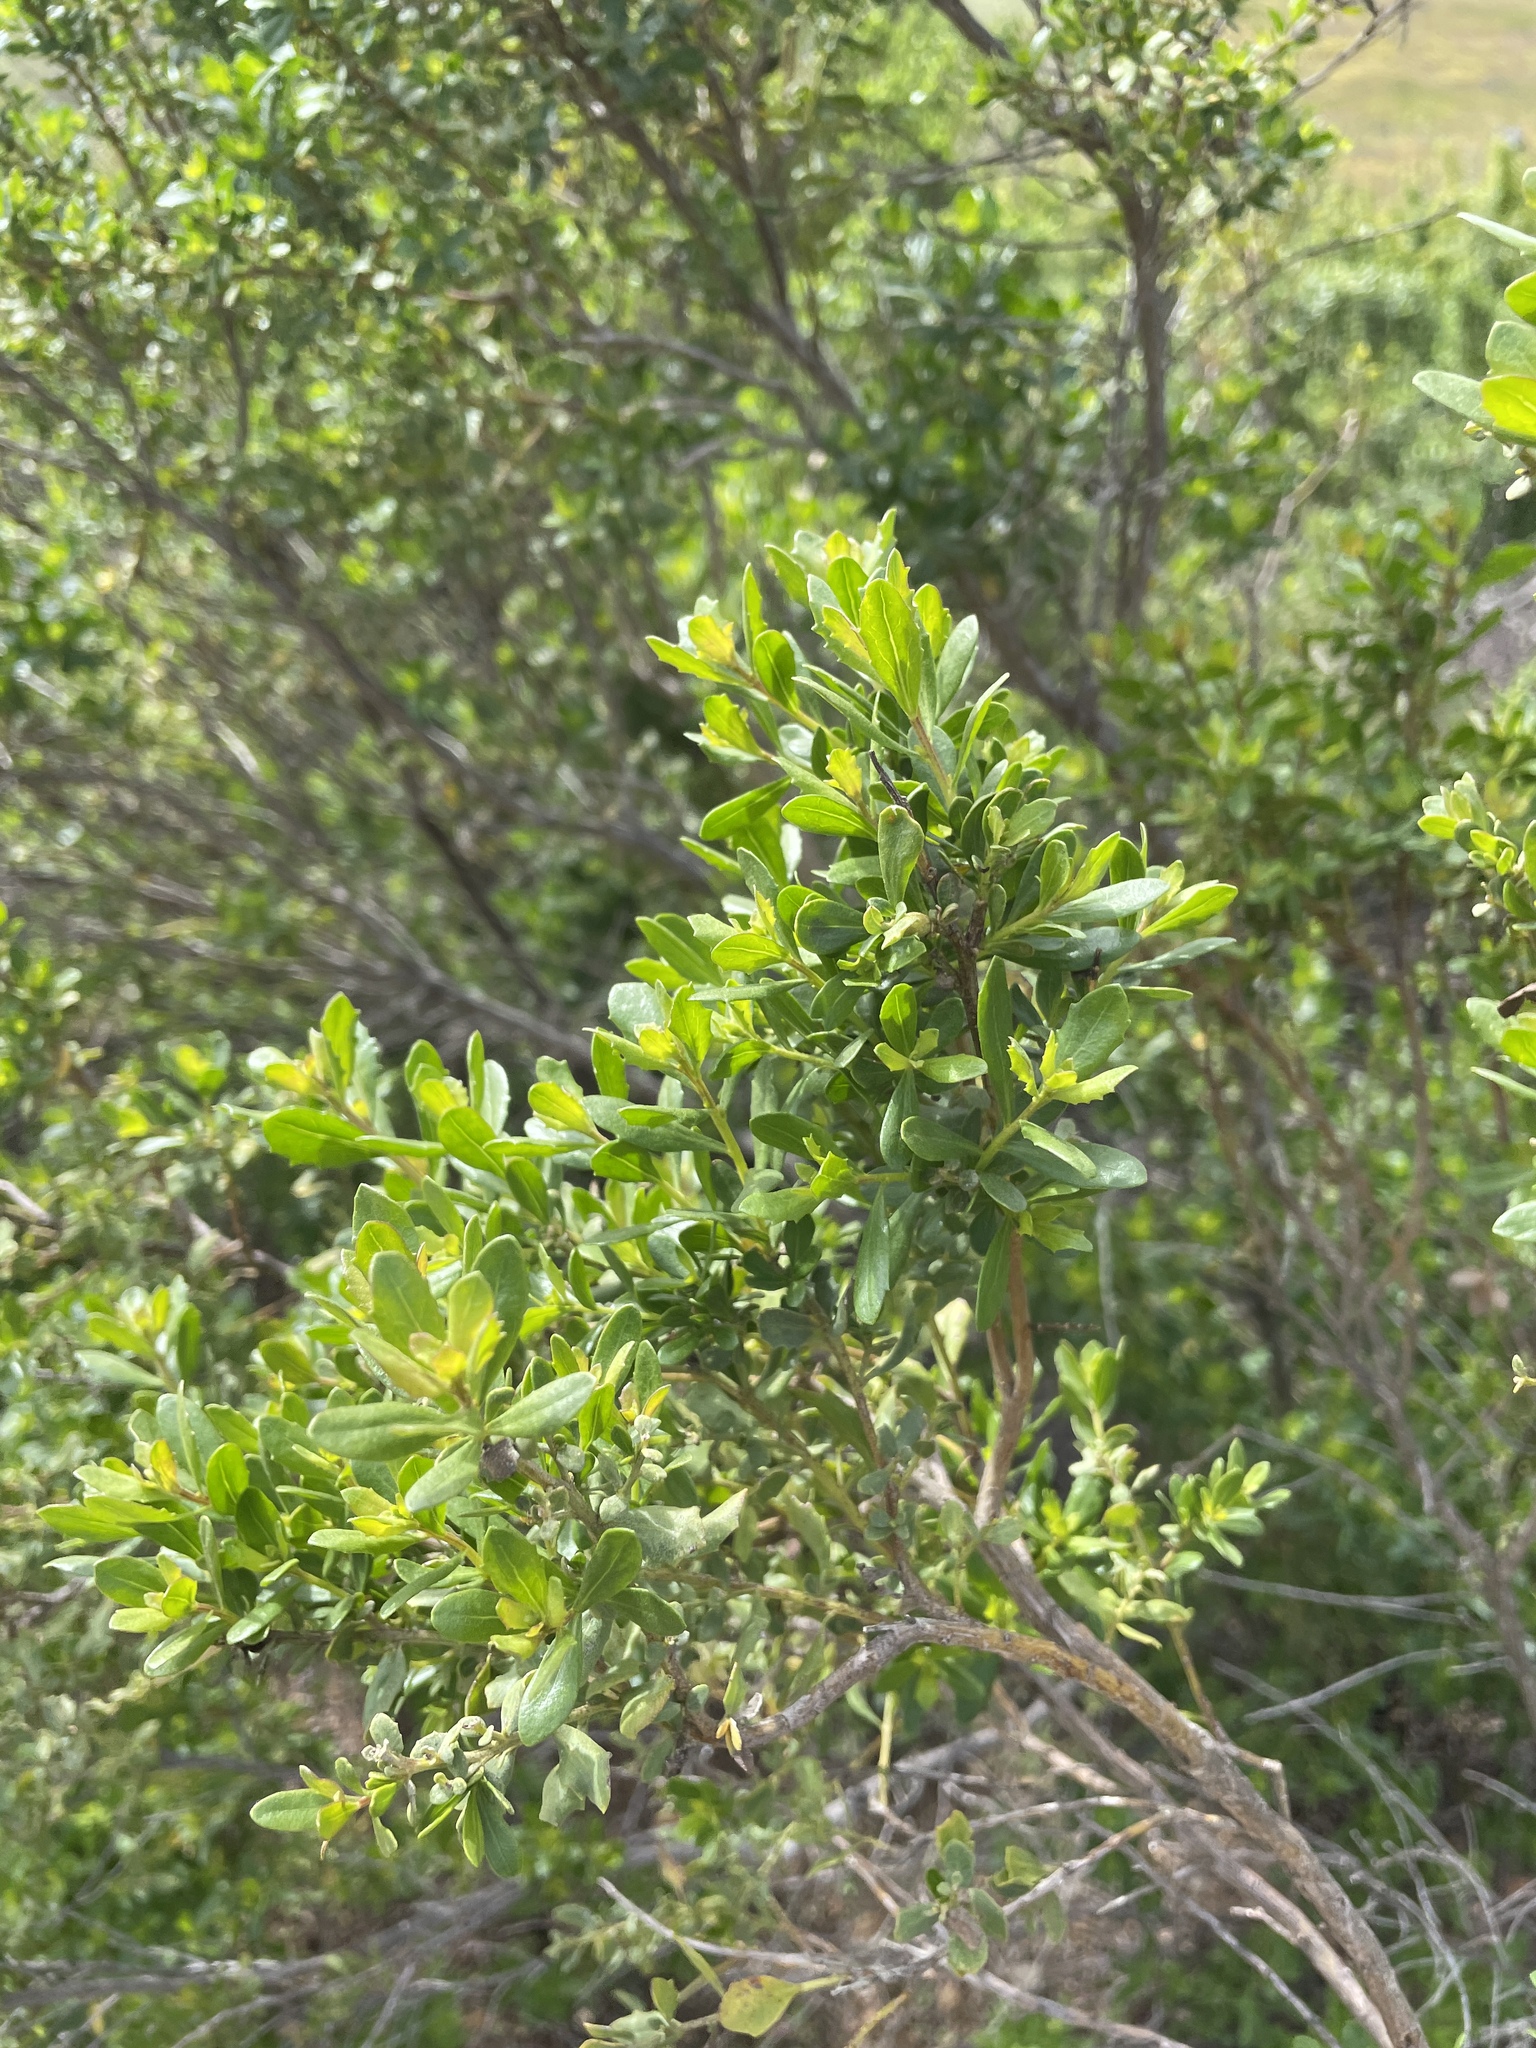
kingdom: Plantae
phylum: Tracheophyta
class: Magnoliopsida
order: Asterales
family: Asteraceae
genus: Baccharis
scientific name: Baccharis pilularis
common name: Coyotebrush
